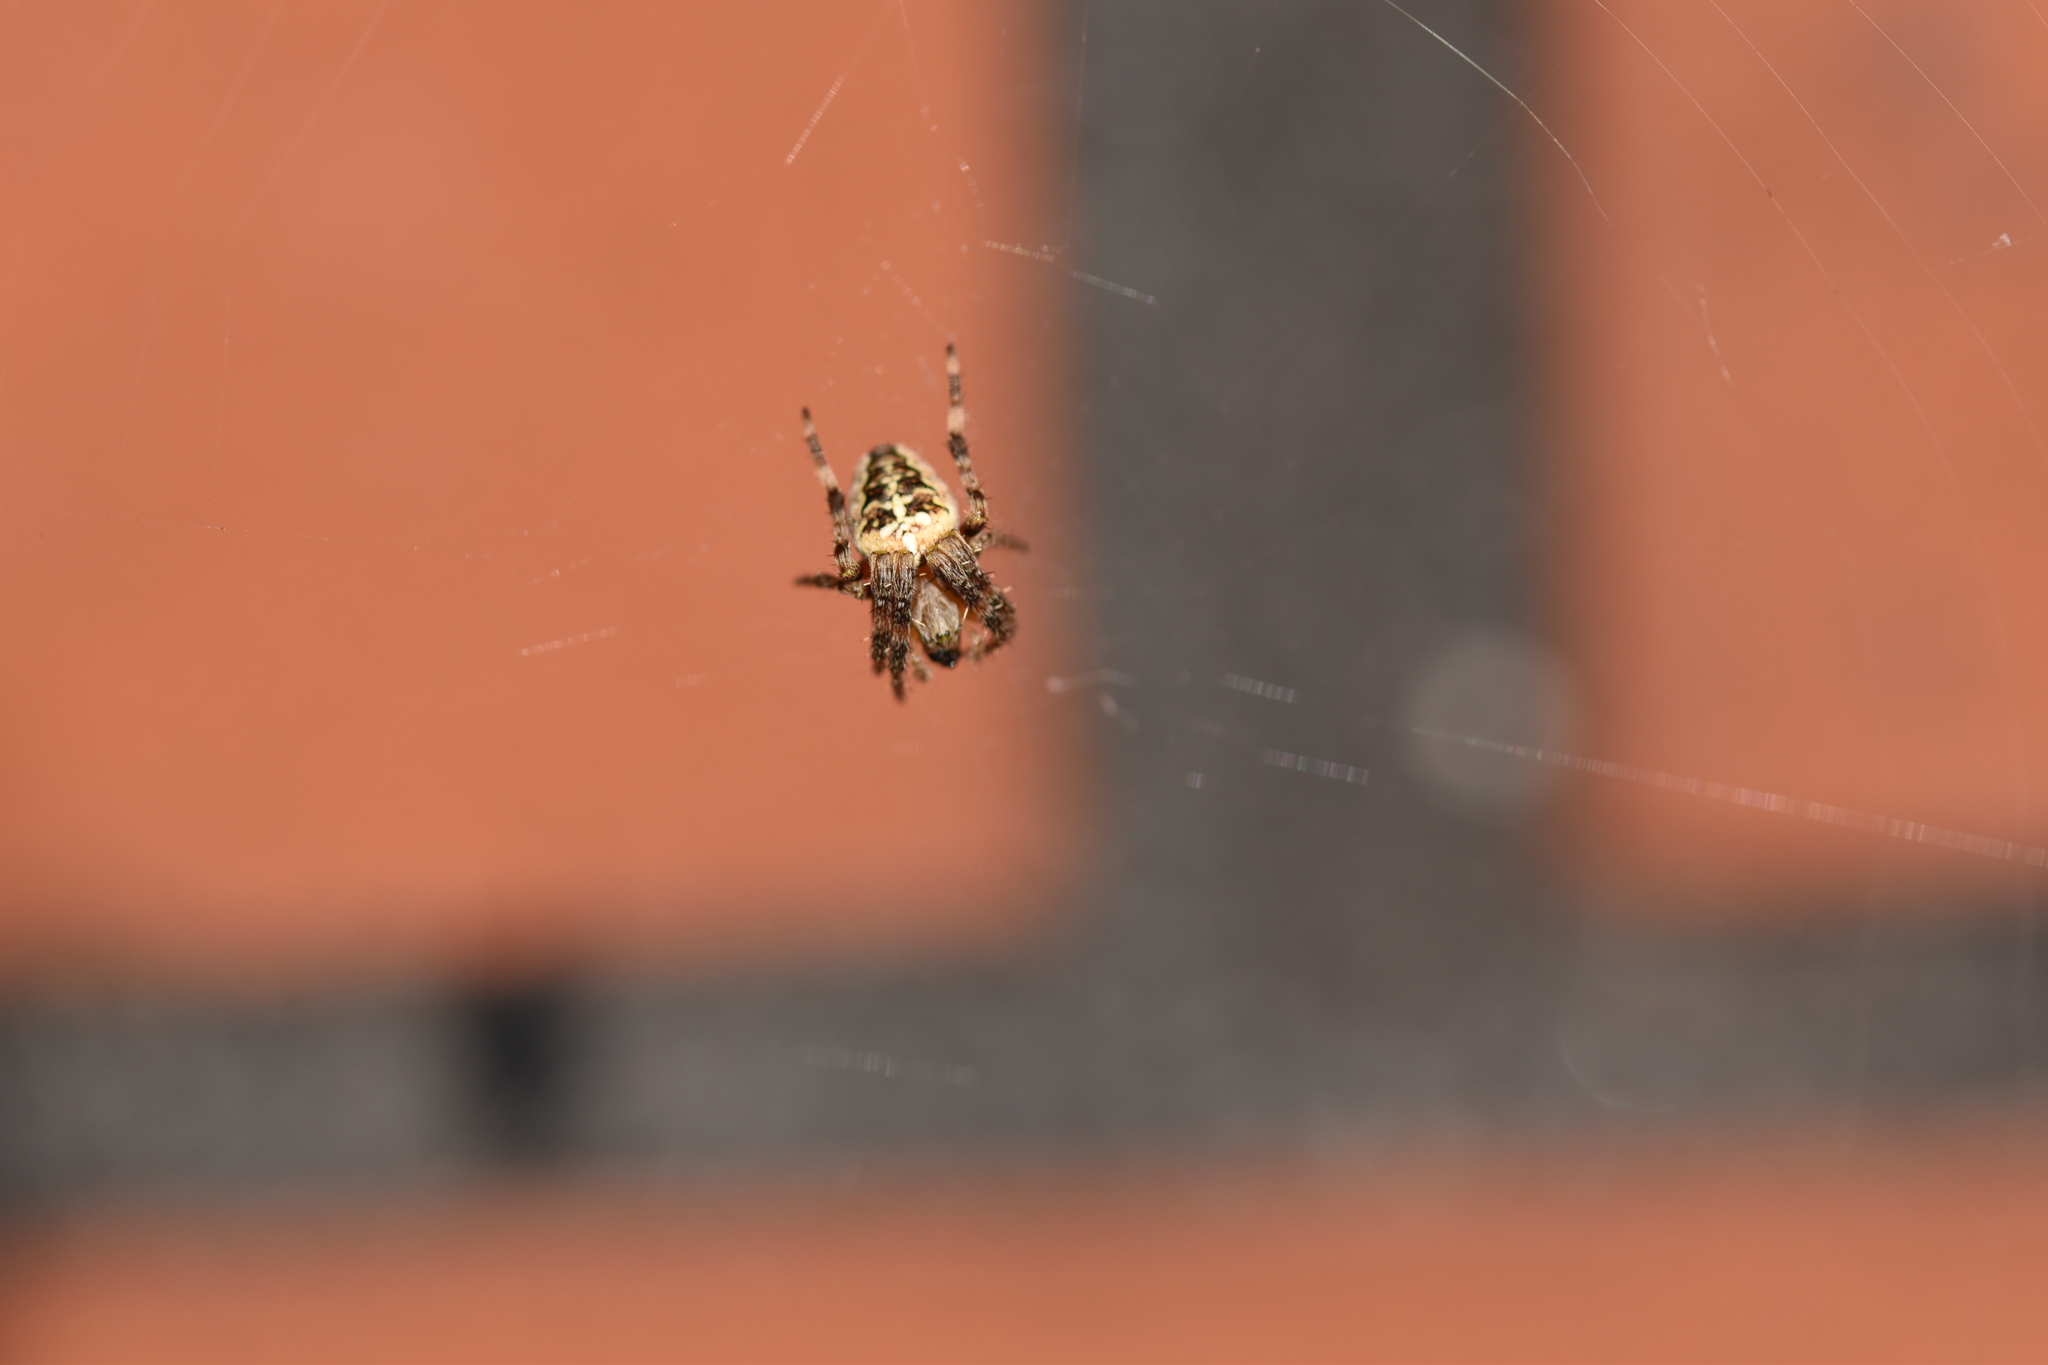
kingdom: Animalia
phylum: Arthropoda
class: Arachnida
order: Araneae
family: Araneidae
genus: Araneus
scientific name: Araneus diadematus
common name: Cross orbweaver
